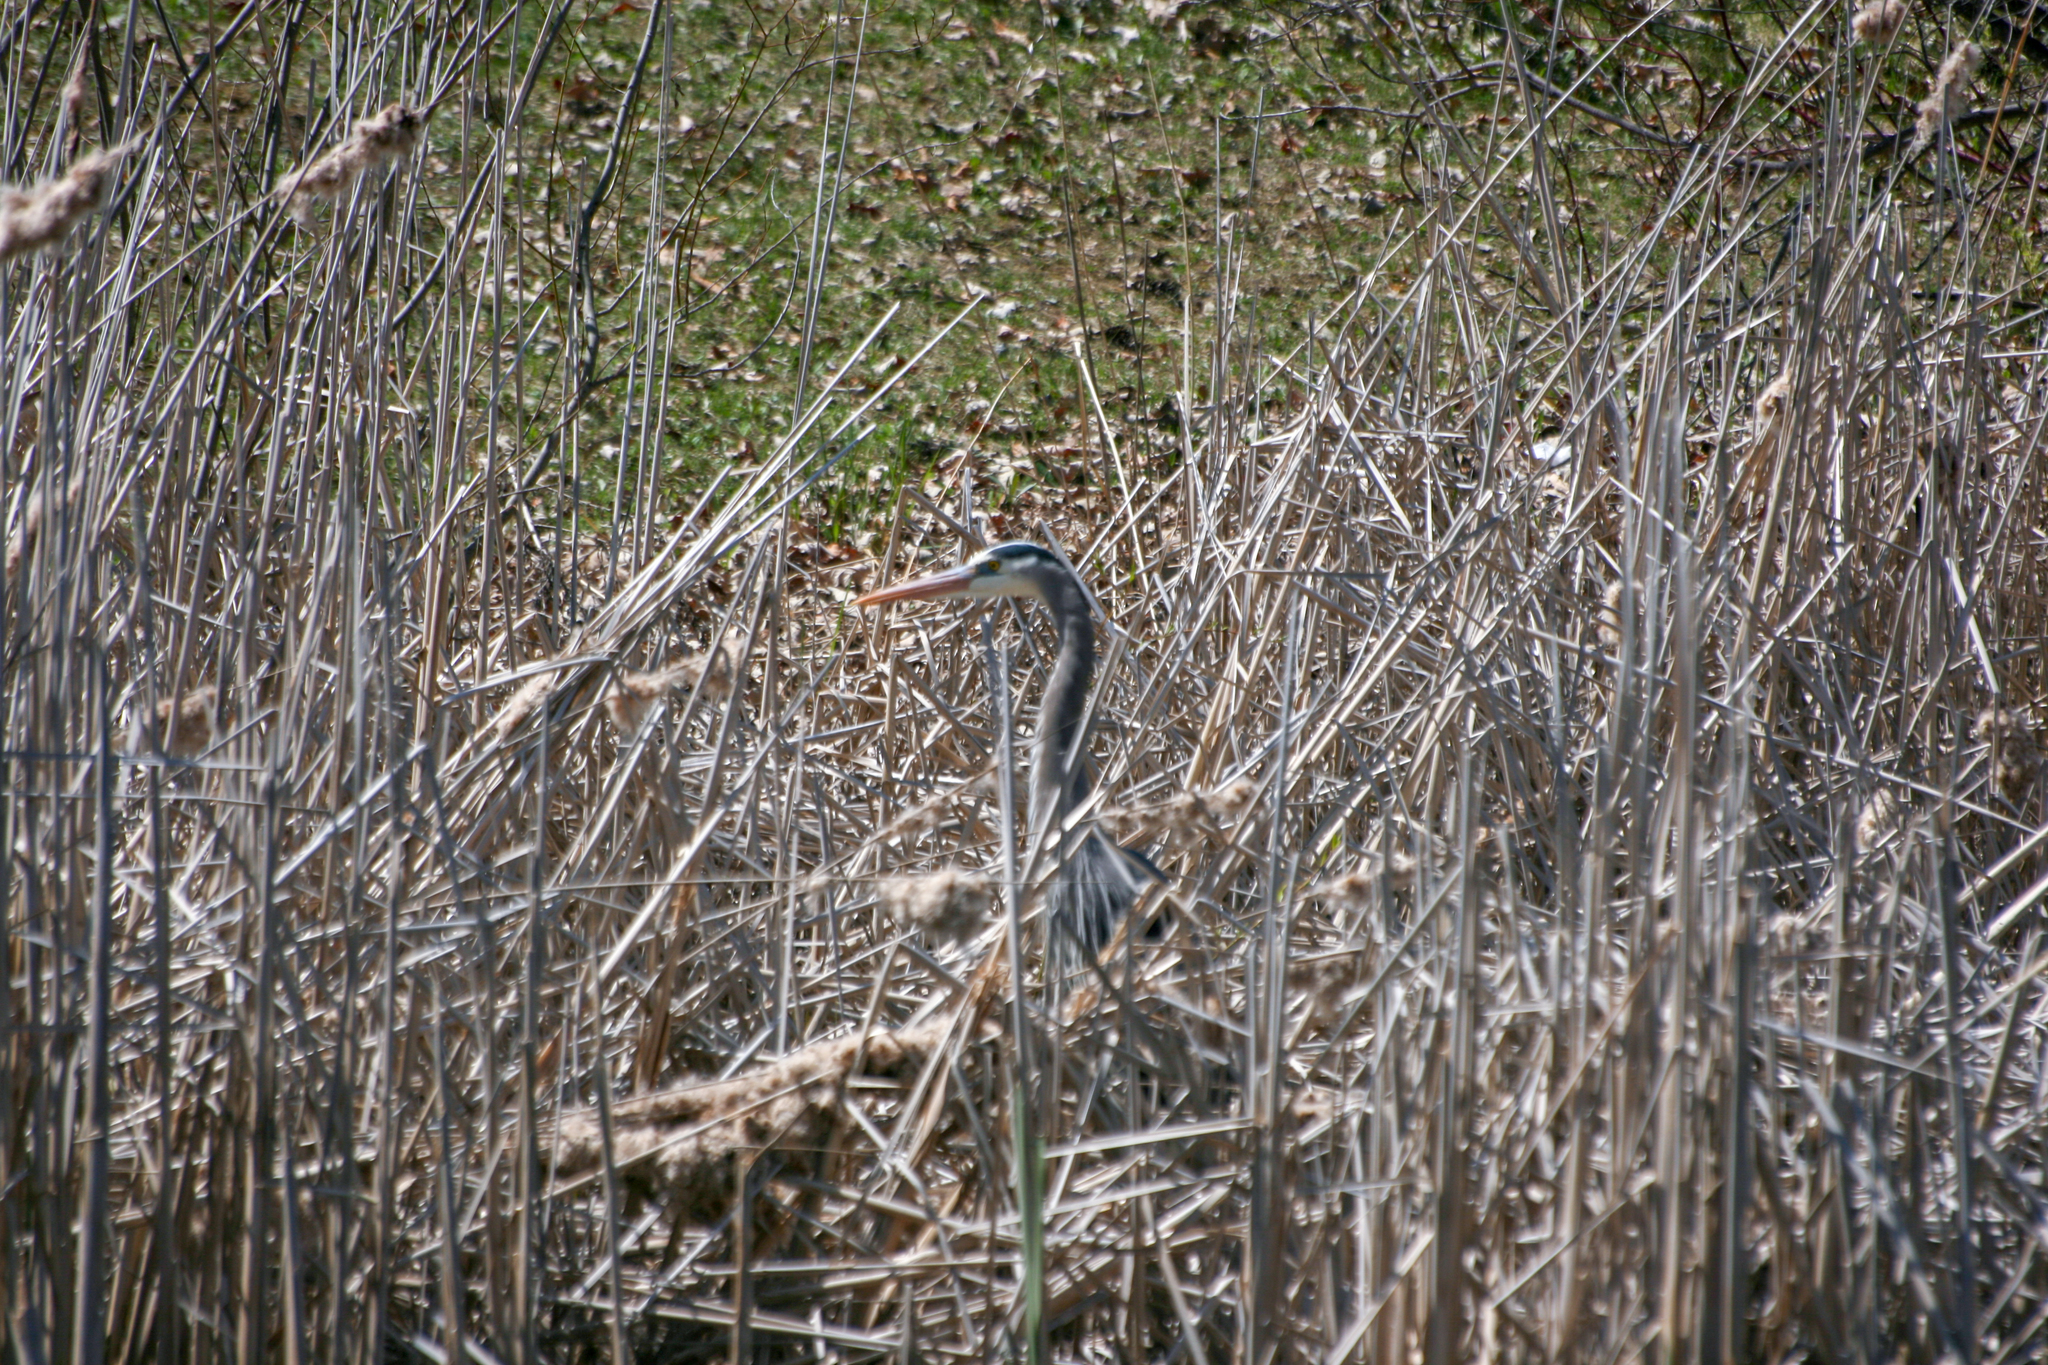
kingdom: Animalia
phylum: Chordata
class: Aves
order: Pelecaniformes
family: Ardeidae
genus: Ardea
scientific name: Ardea herodias
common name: Great blue heron
